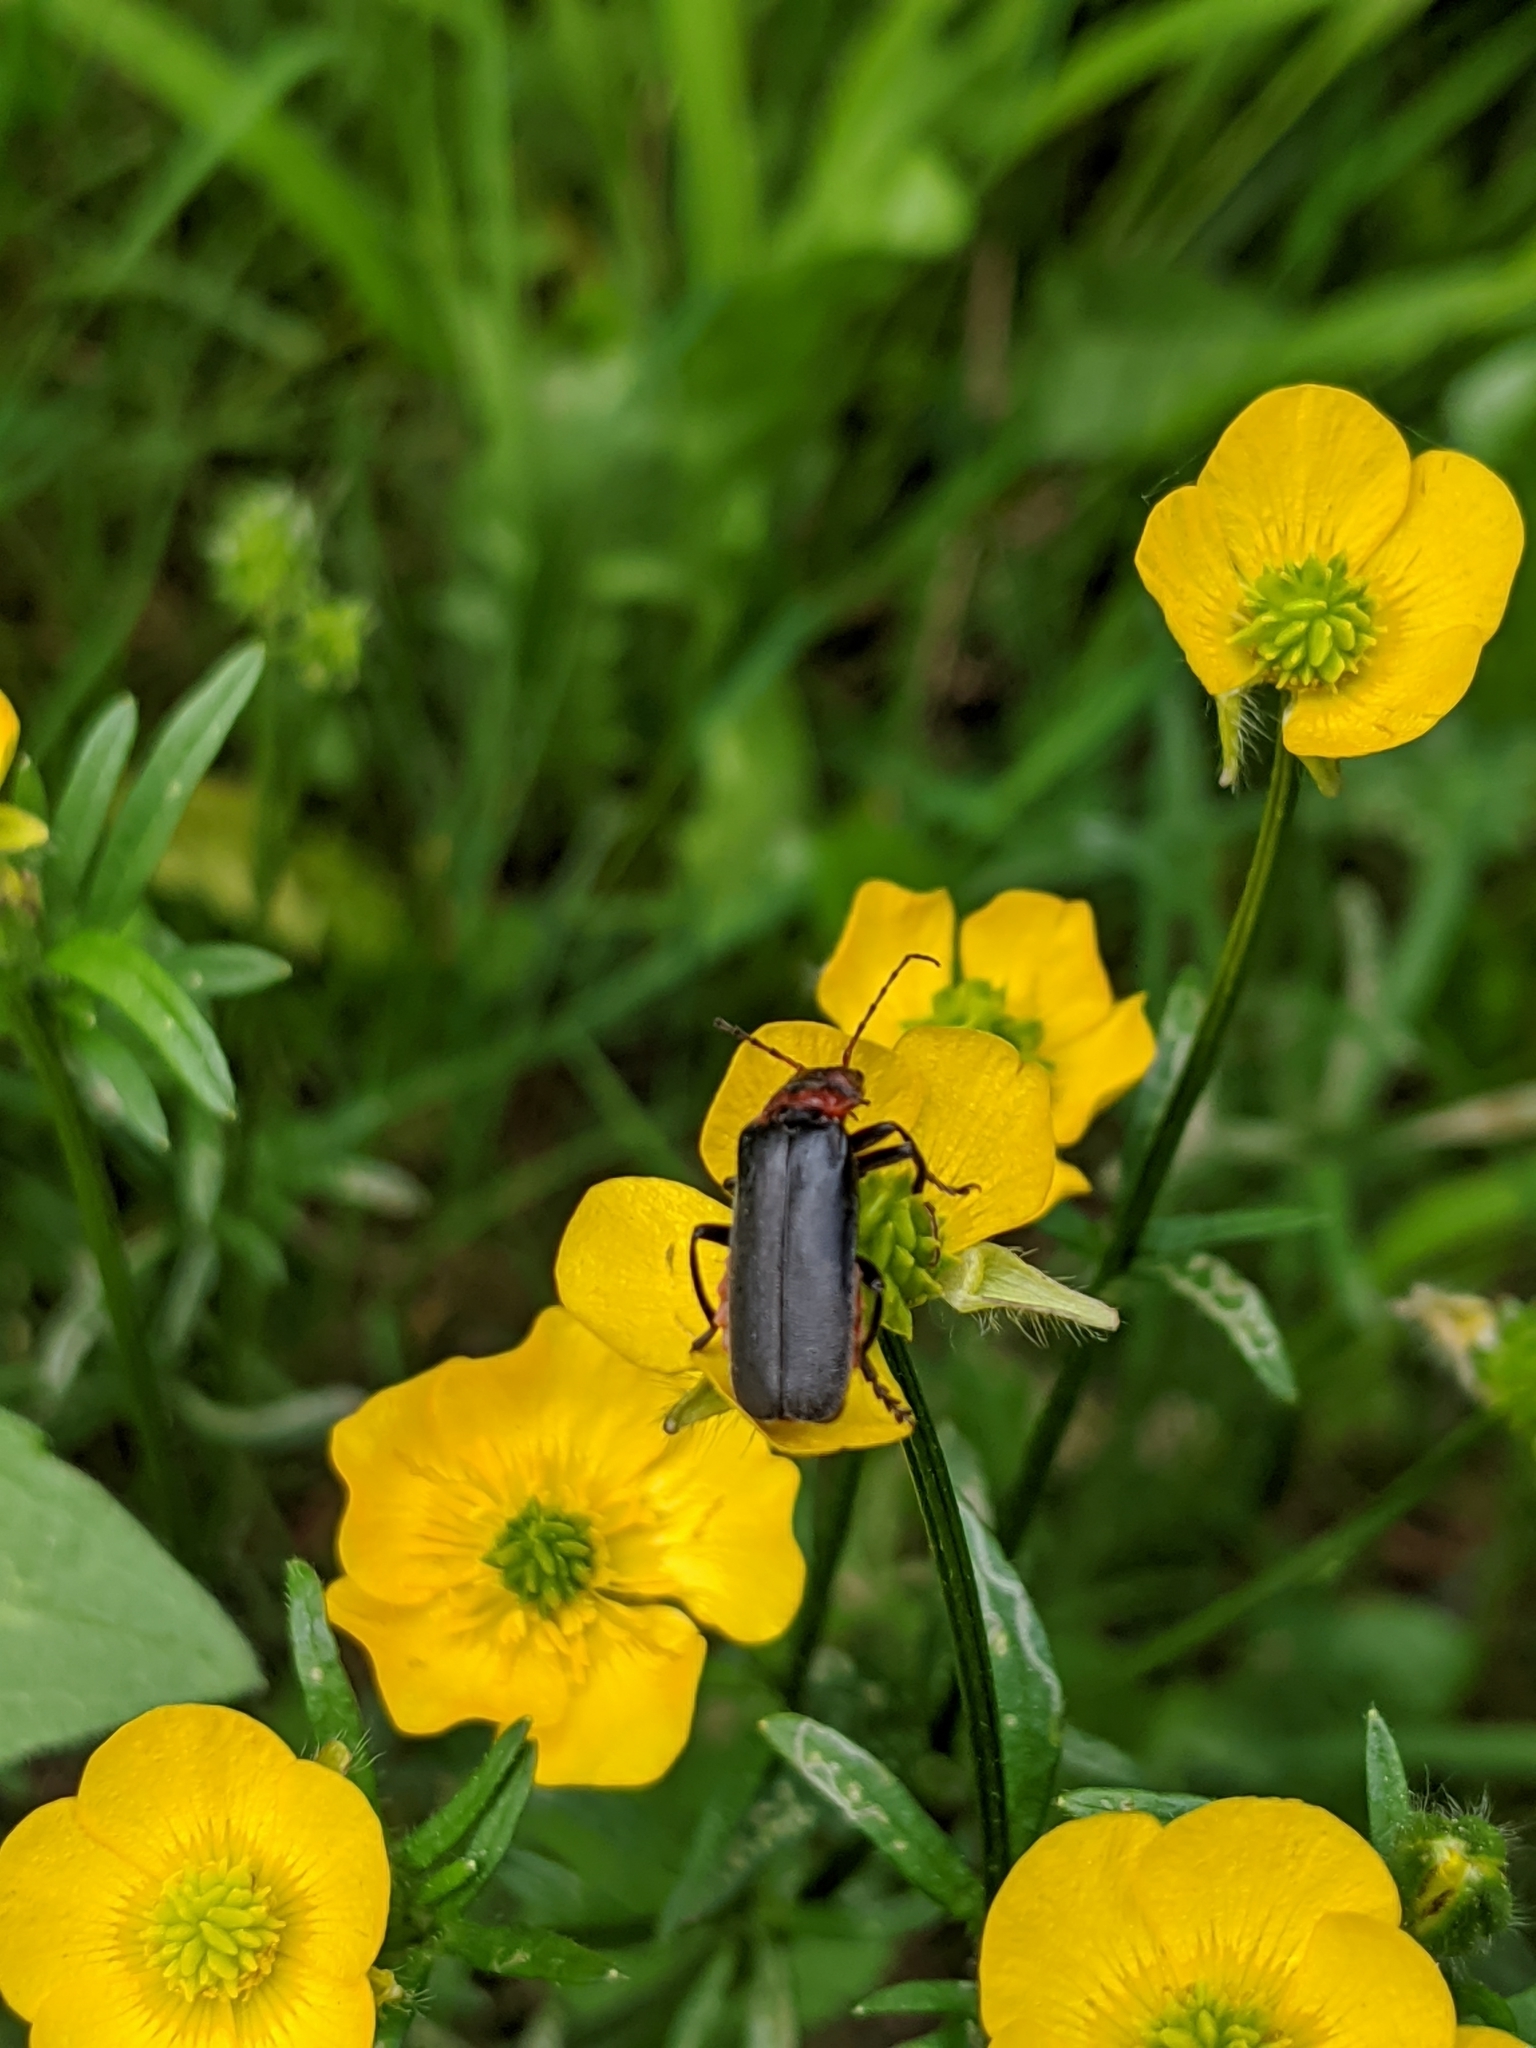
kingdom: Animalia
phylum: Arthropoda
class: Insecta
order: Coleoptera
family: Cantharidae
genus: Cantharis
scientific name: Cantharis fusca
